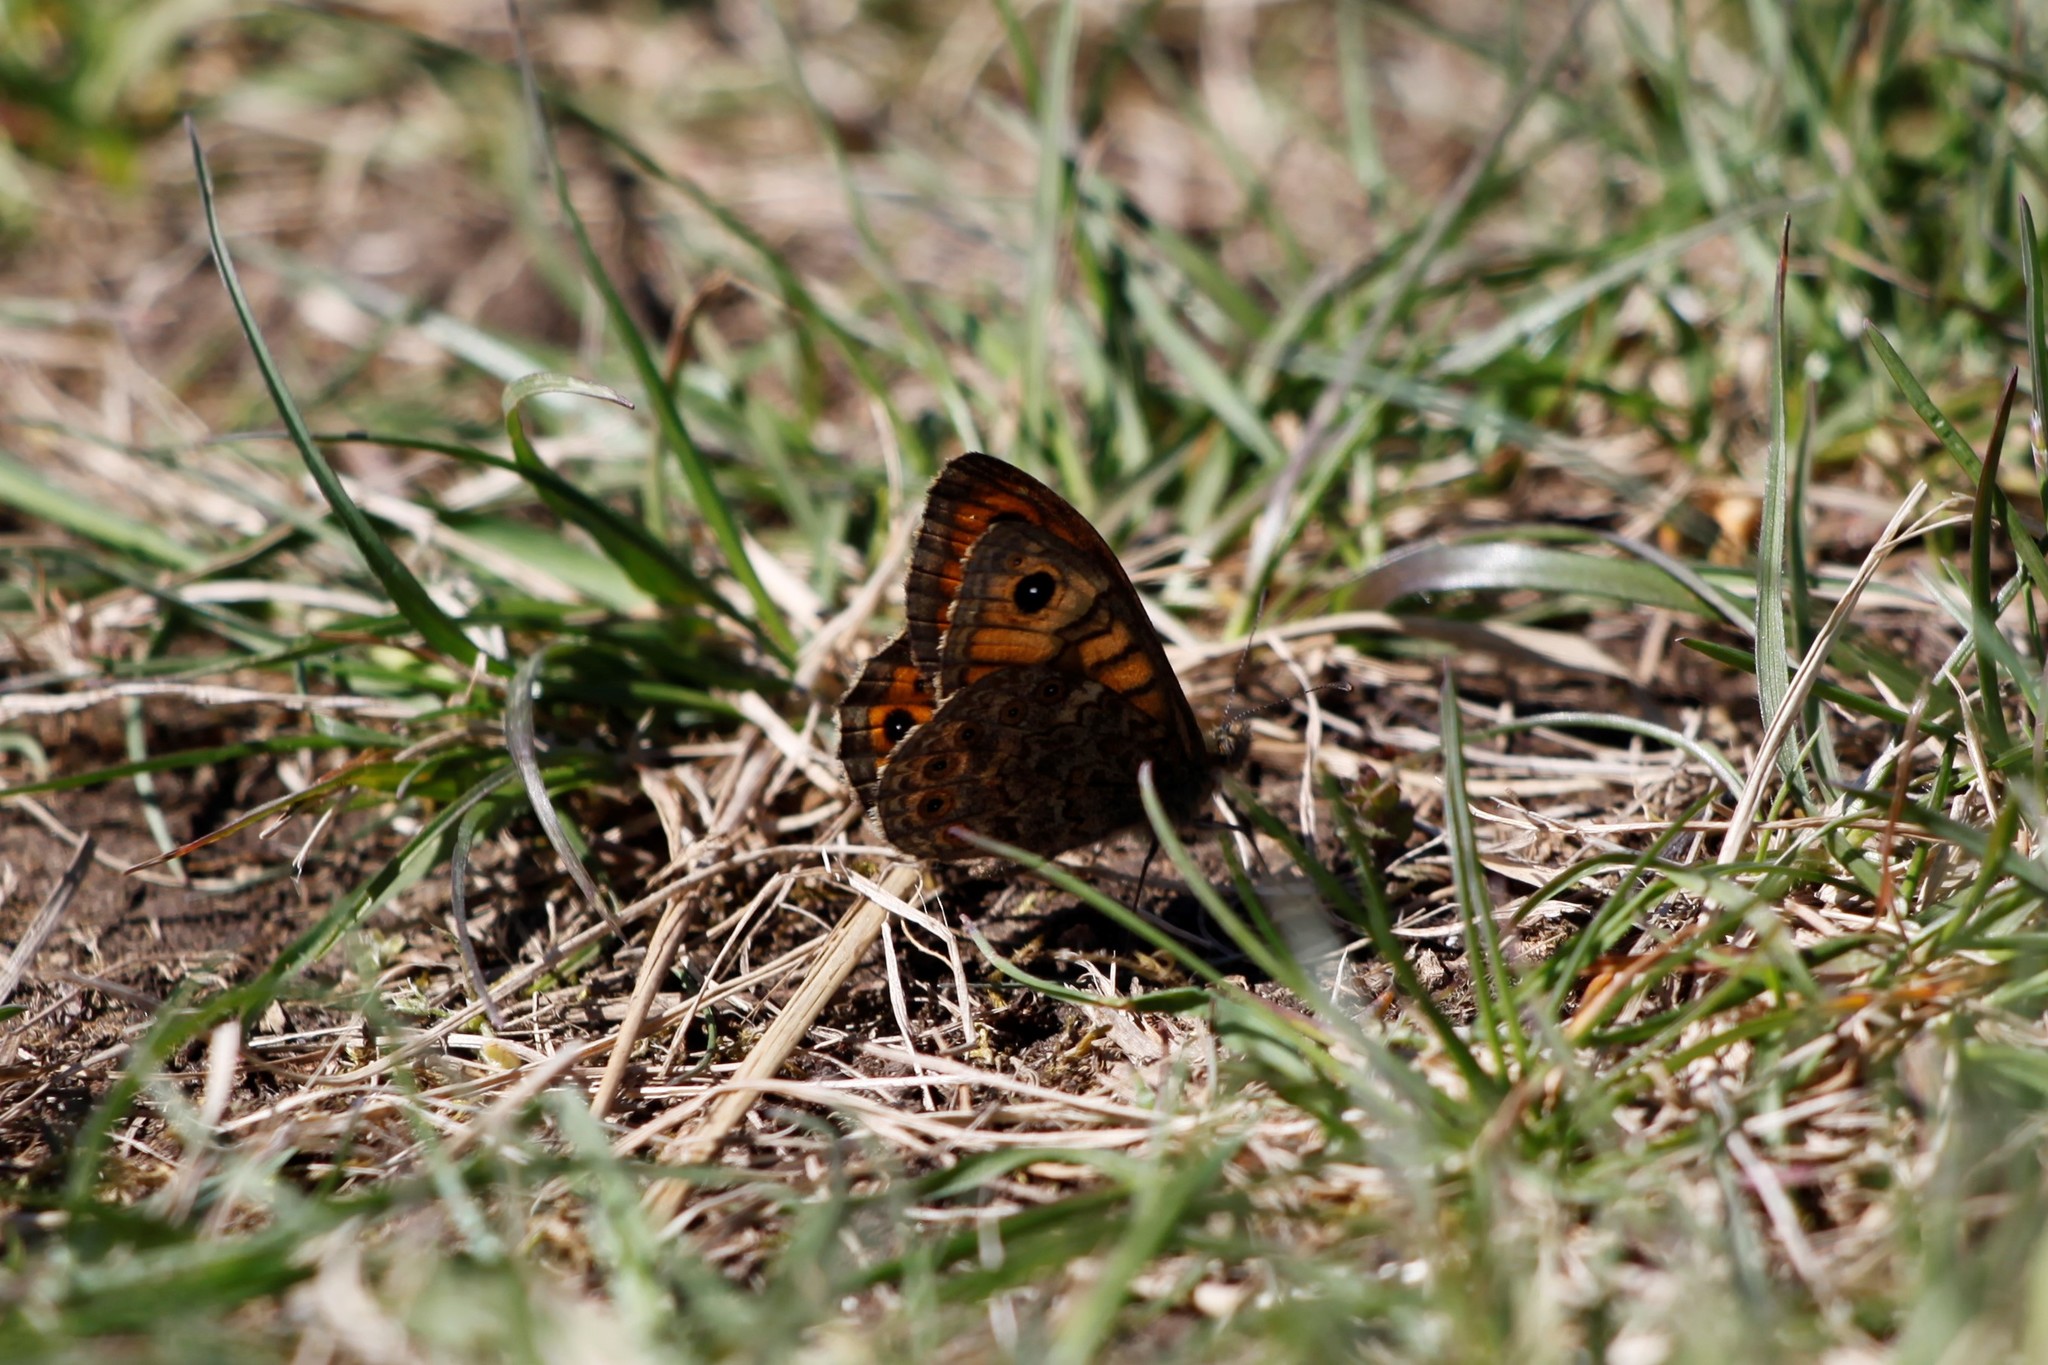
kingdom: Animalia
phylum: Arthropoda
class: Insecta
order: Lepidoptera
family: Nymphalidae
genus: Pararge
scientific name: Pararge Lasiommata megera
